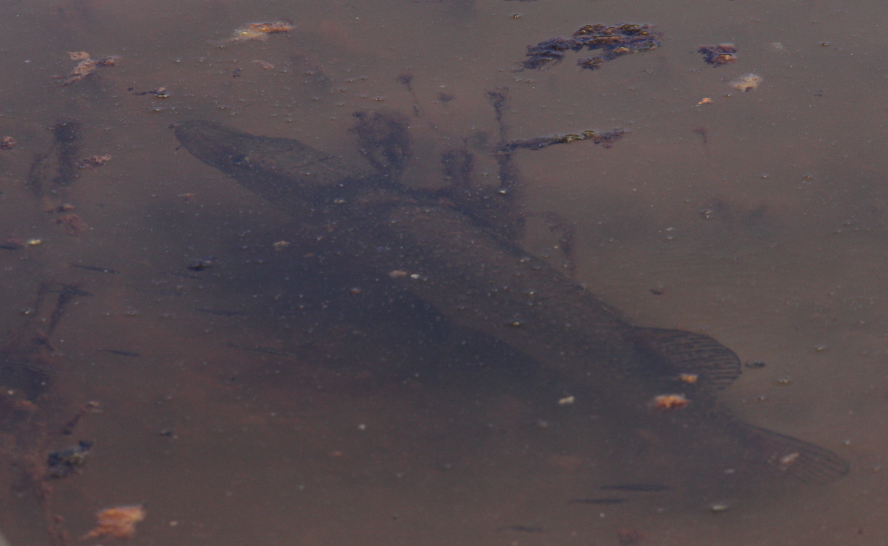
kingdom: Animalia
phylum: Chordata
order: Esociformes
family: Esocidae
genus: Esox
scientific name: Esox lucius
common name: Northern pike
